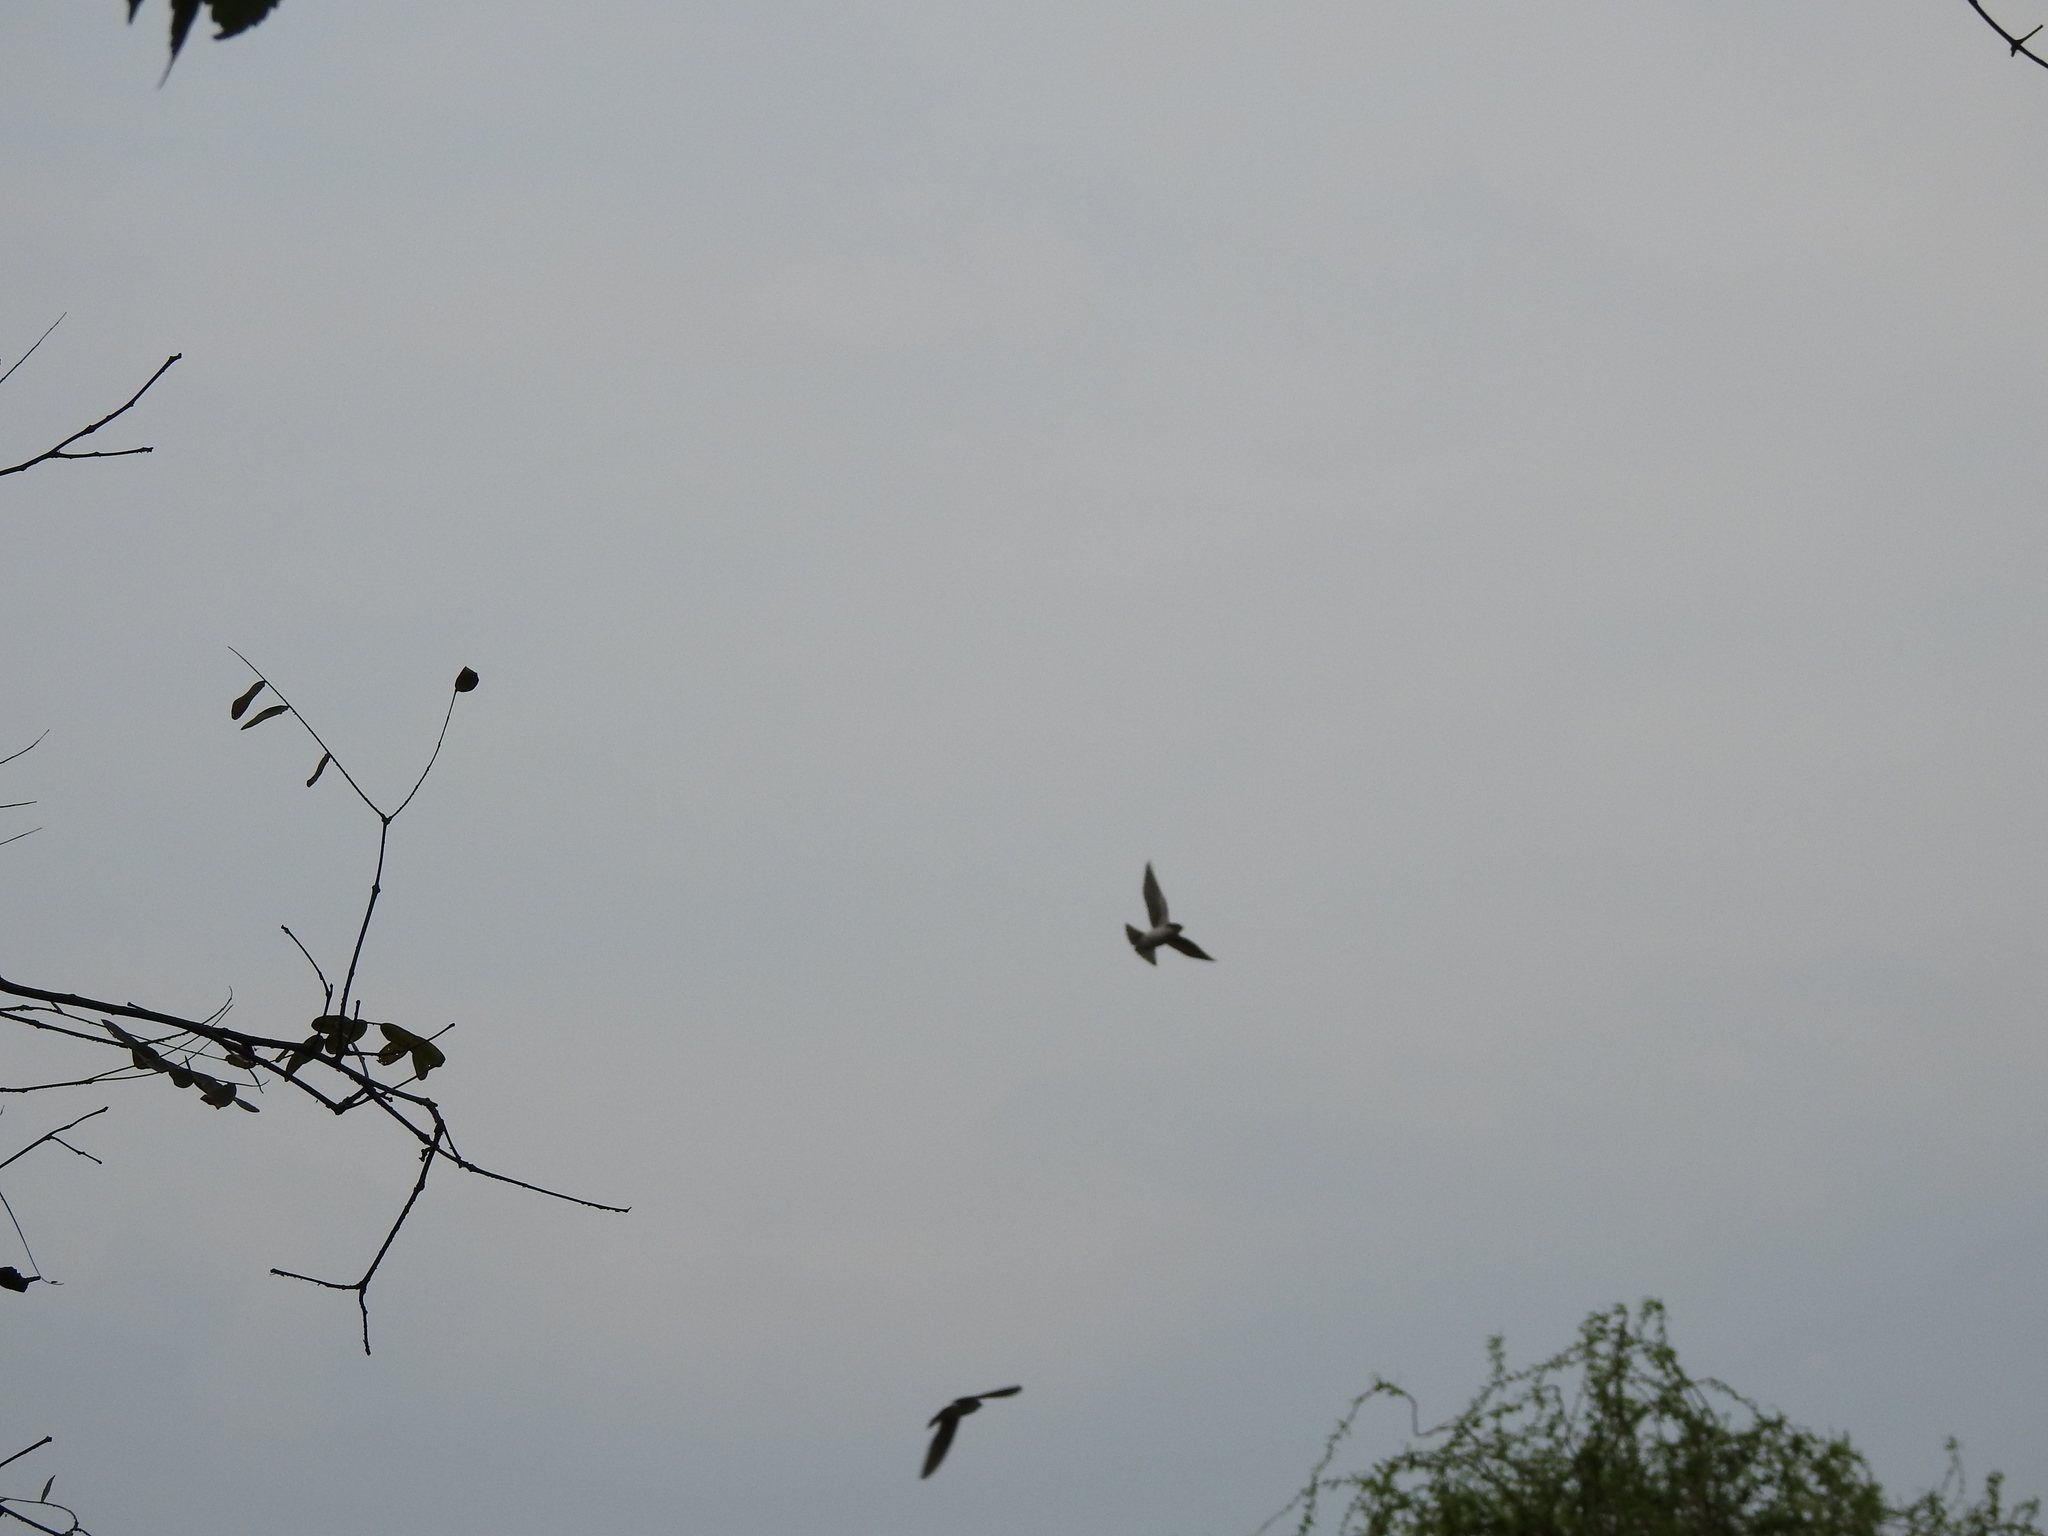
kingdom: Animalia
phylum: Chordata
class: Aves
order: Passeriformes
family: Hirundinidae
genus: Tachycineta
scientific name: Tachycineta leucorrhoa
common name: White-rumped swallow
